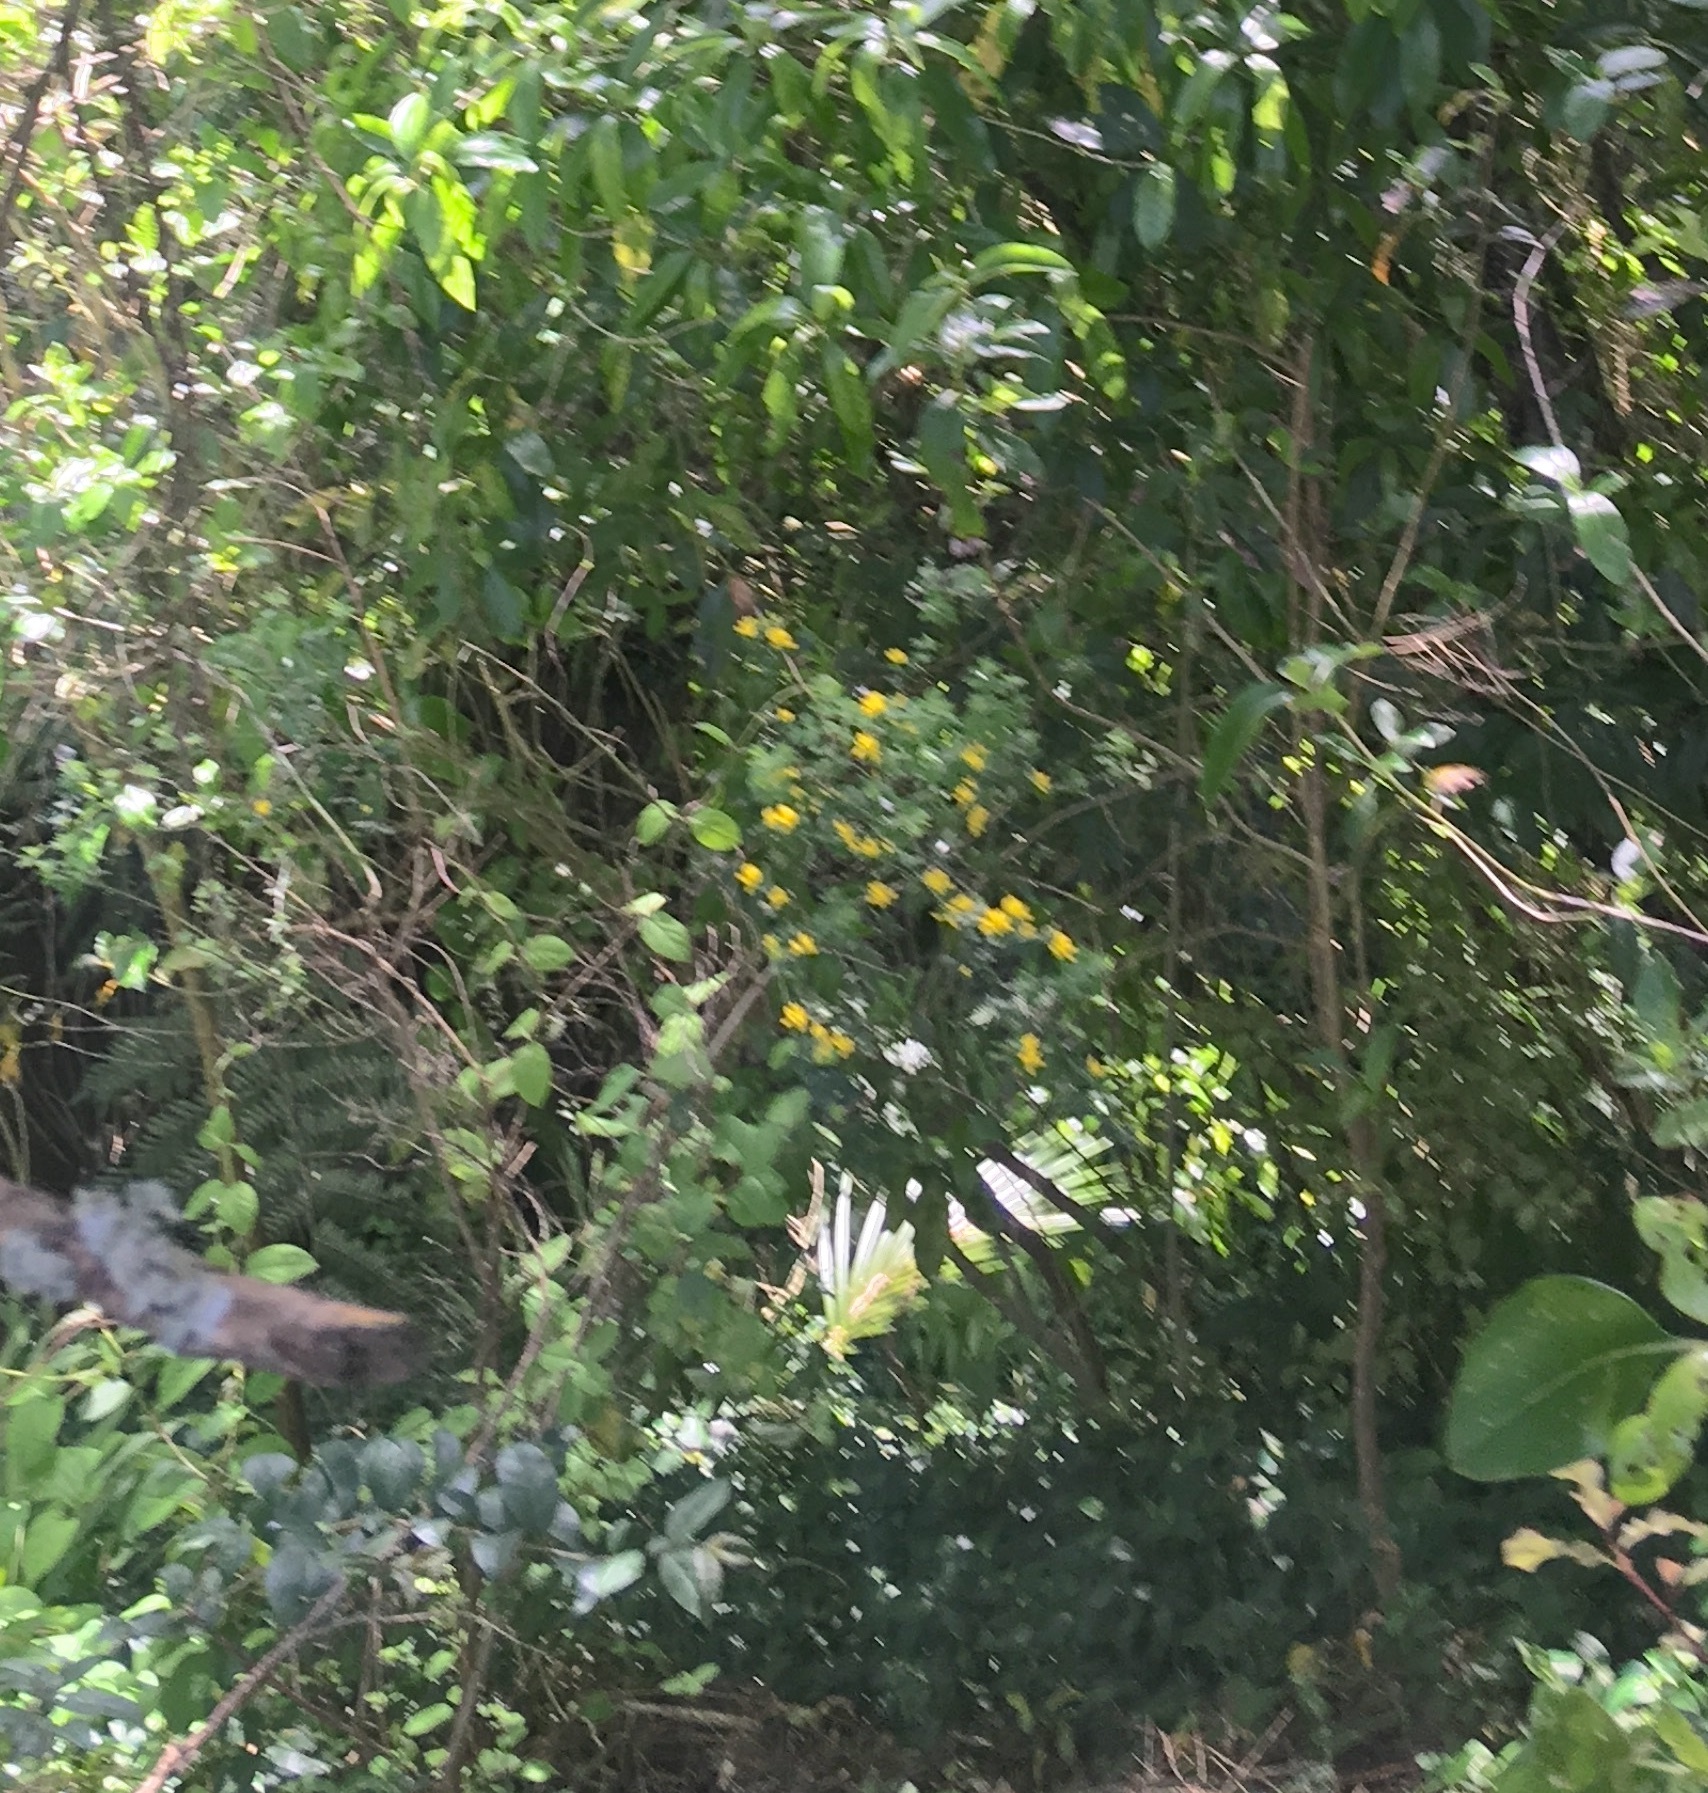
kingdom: Plantae
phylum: Tracheophyta
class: Magnoliopsida
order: Dipsacales
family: Caprifoliaceae
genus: Lonicera
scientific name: Lonicera japonica
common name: Japanese honeysuckle
